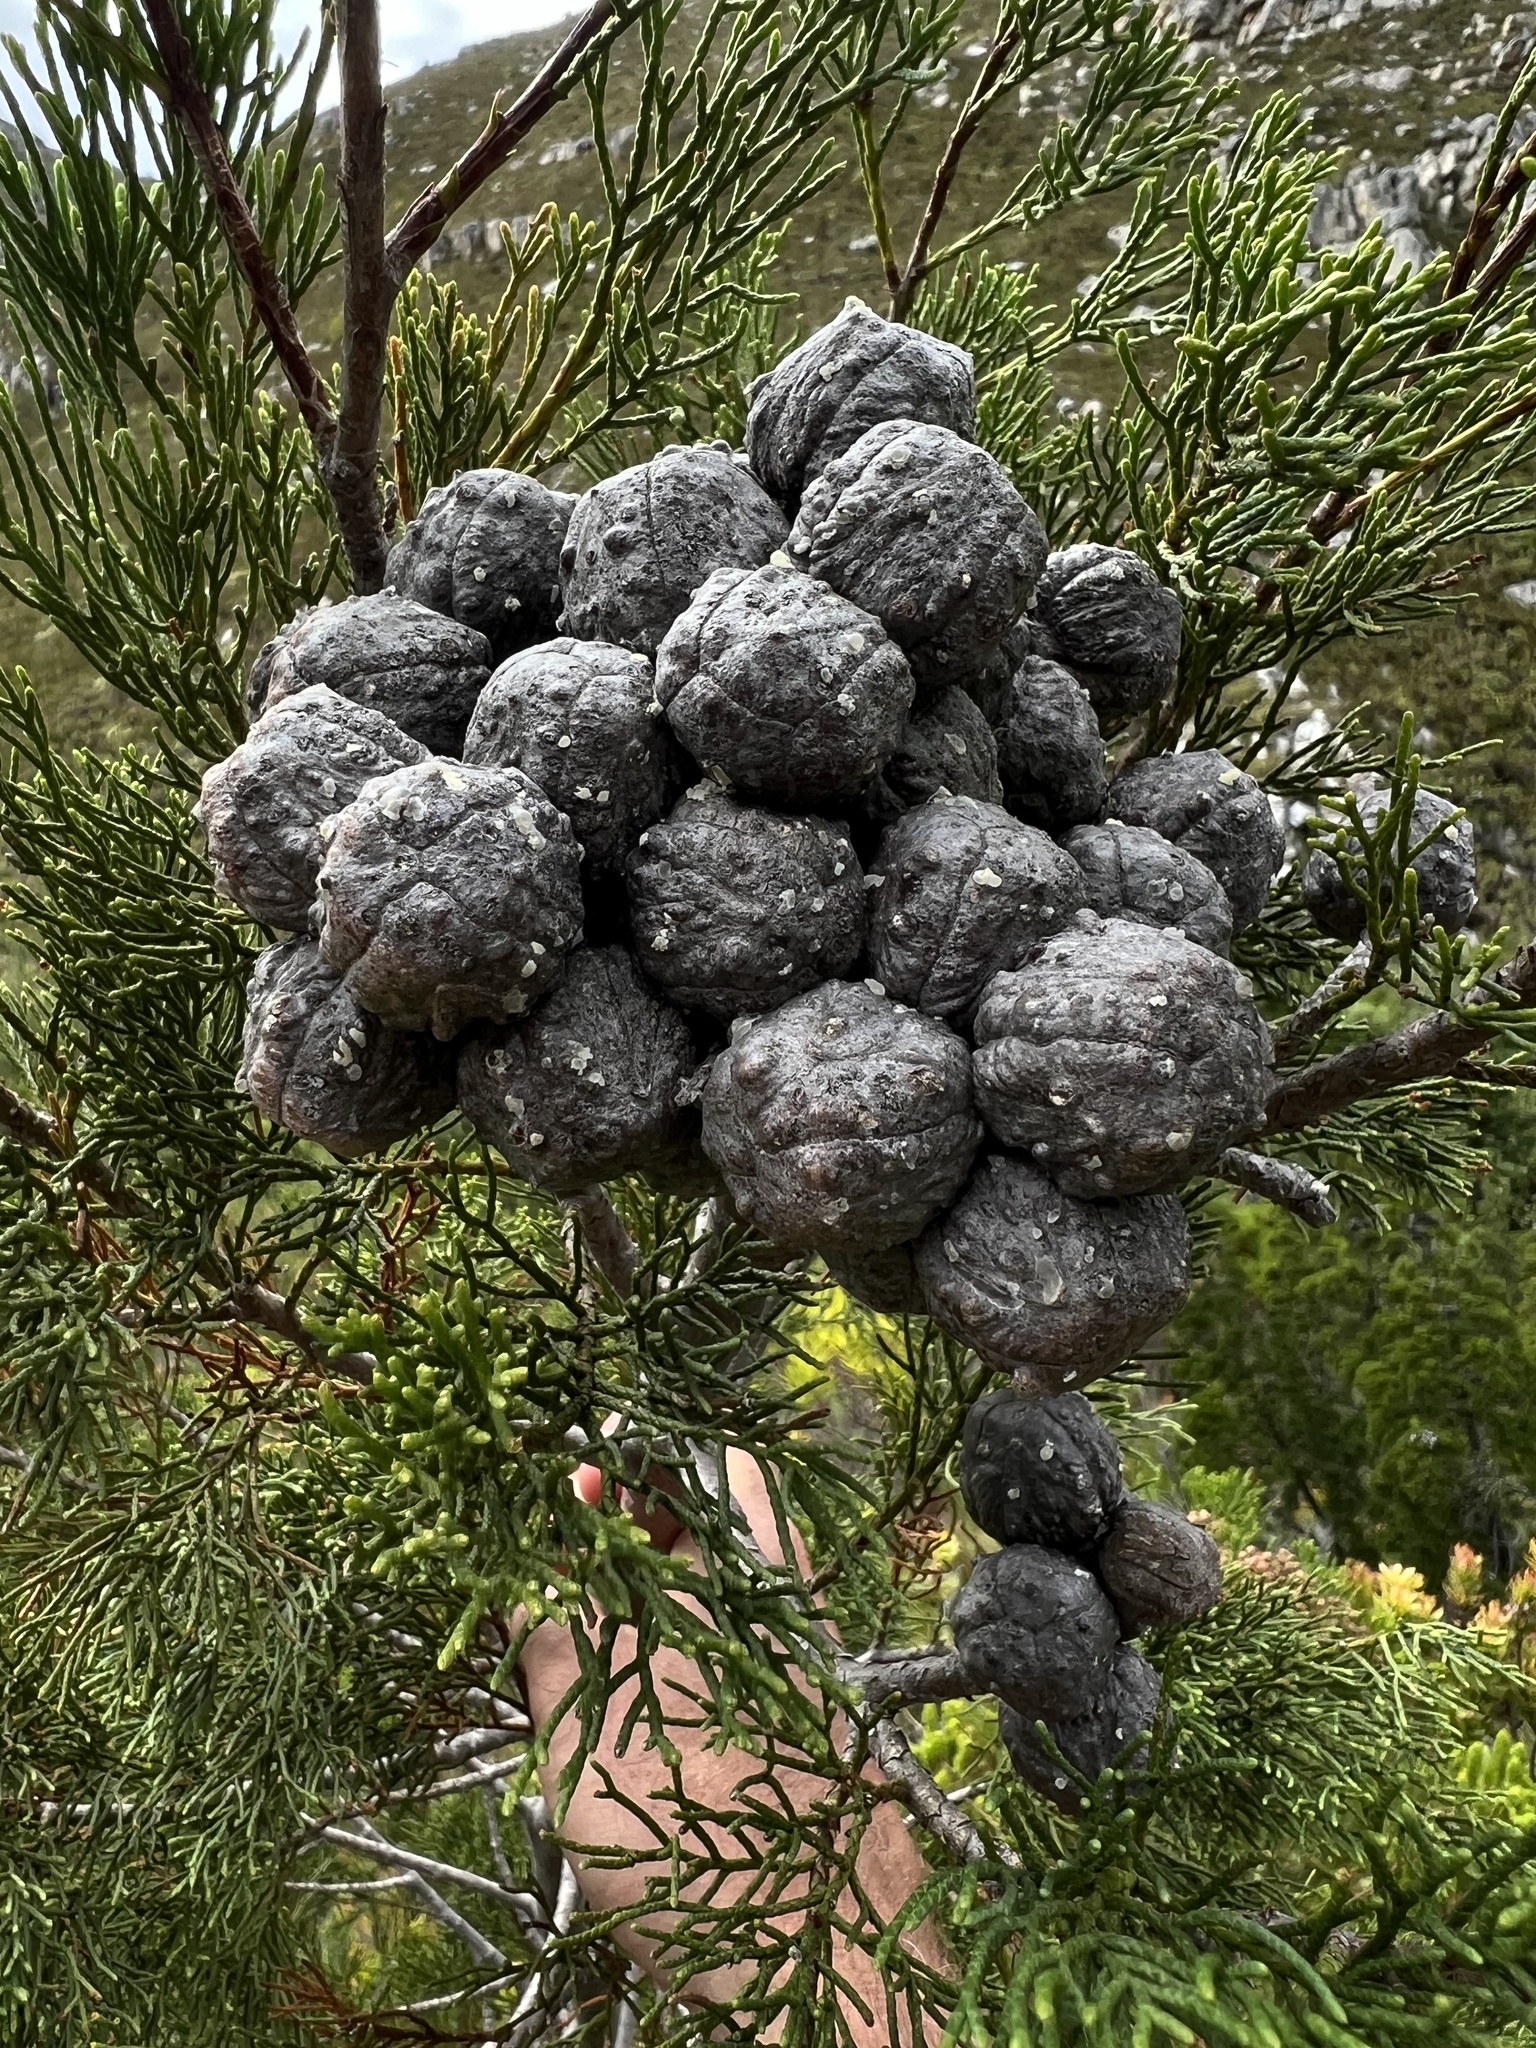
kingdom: Plantae
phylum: Tracheophyta
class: Pinopsida
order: Pinales
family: Cupressaceae
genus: Widdringtonia
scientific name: Widdringtonia nodiflora
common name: Cape cypress
